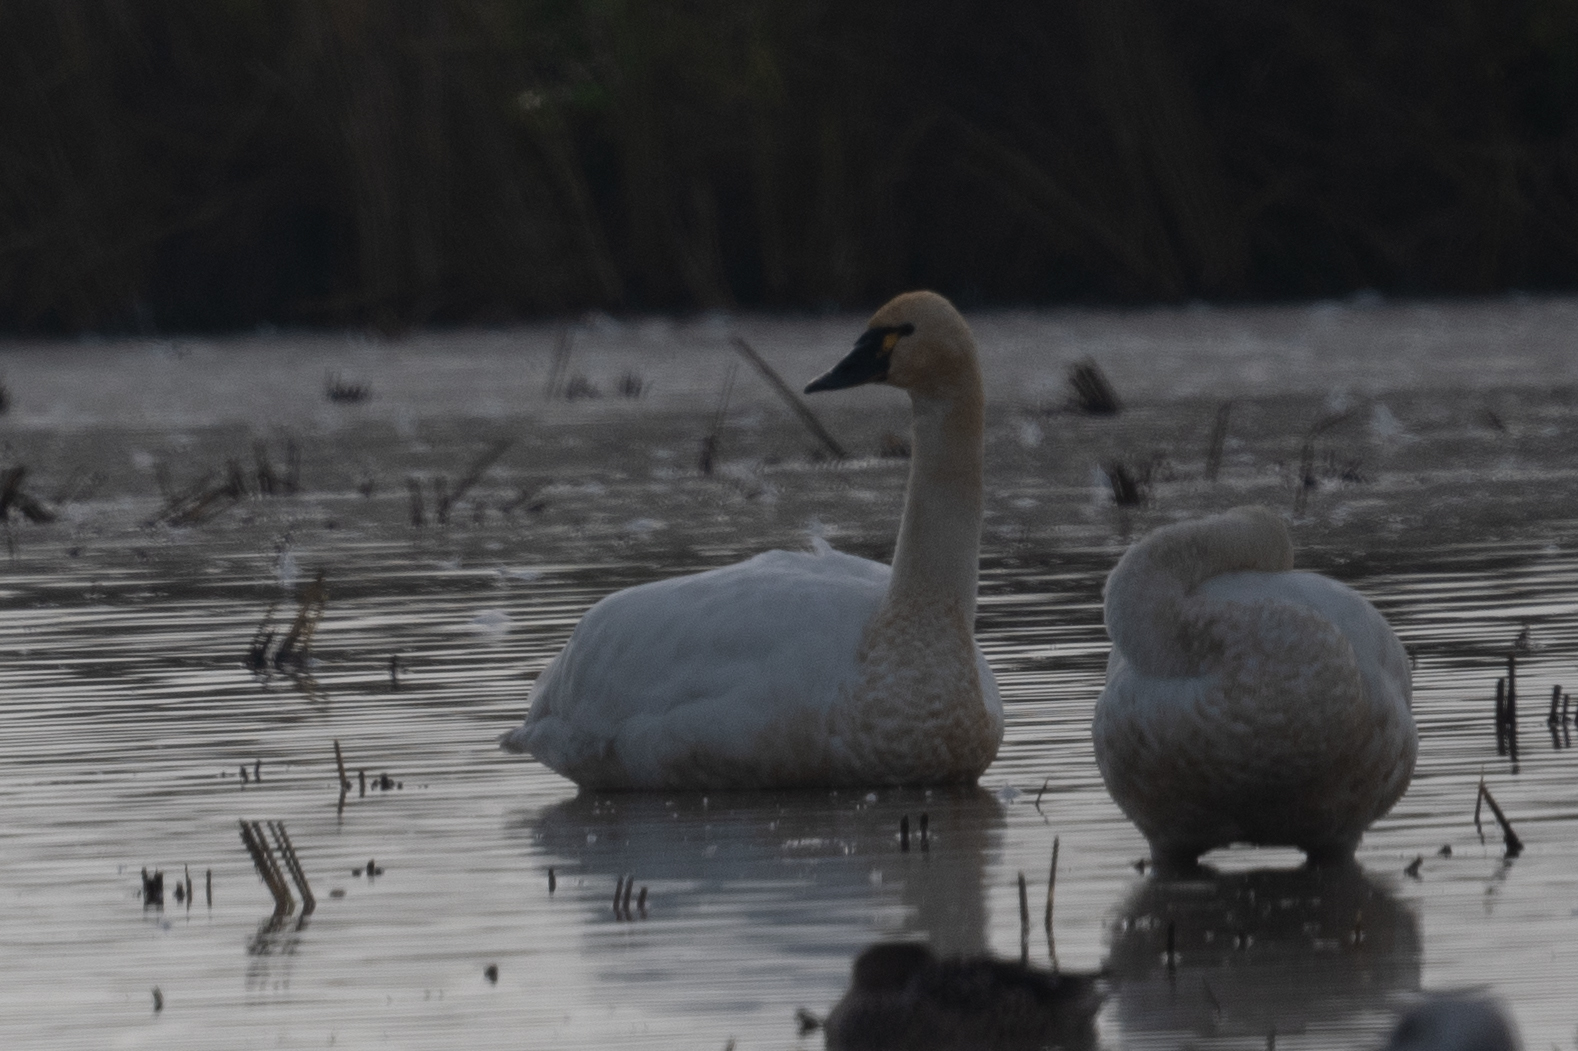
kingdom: Animalia
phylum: Chordata
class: Aves
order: Anseriformes
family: Anatidae
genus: Cygnus
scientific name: Cygnus columbianus
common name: Tundra swan
